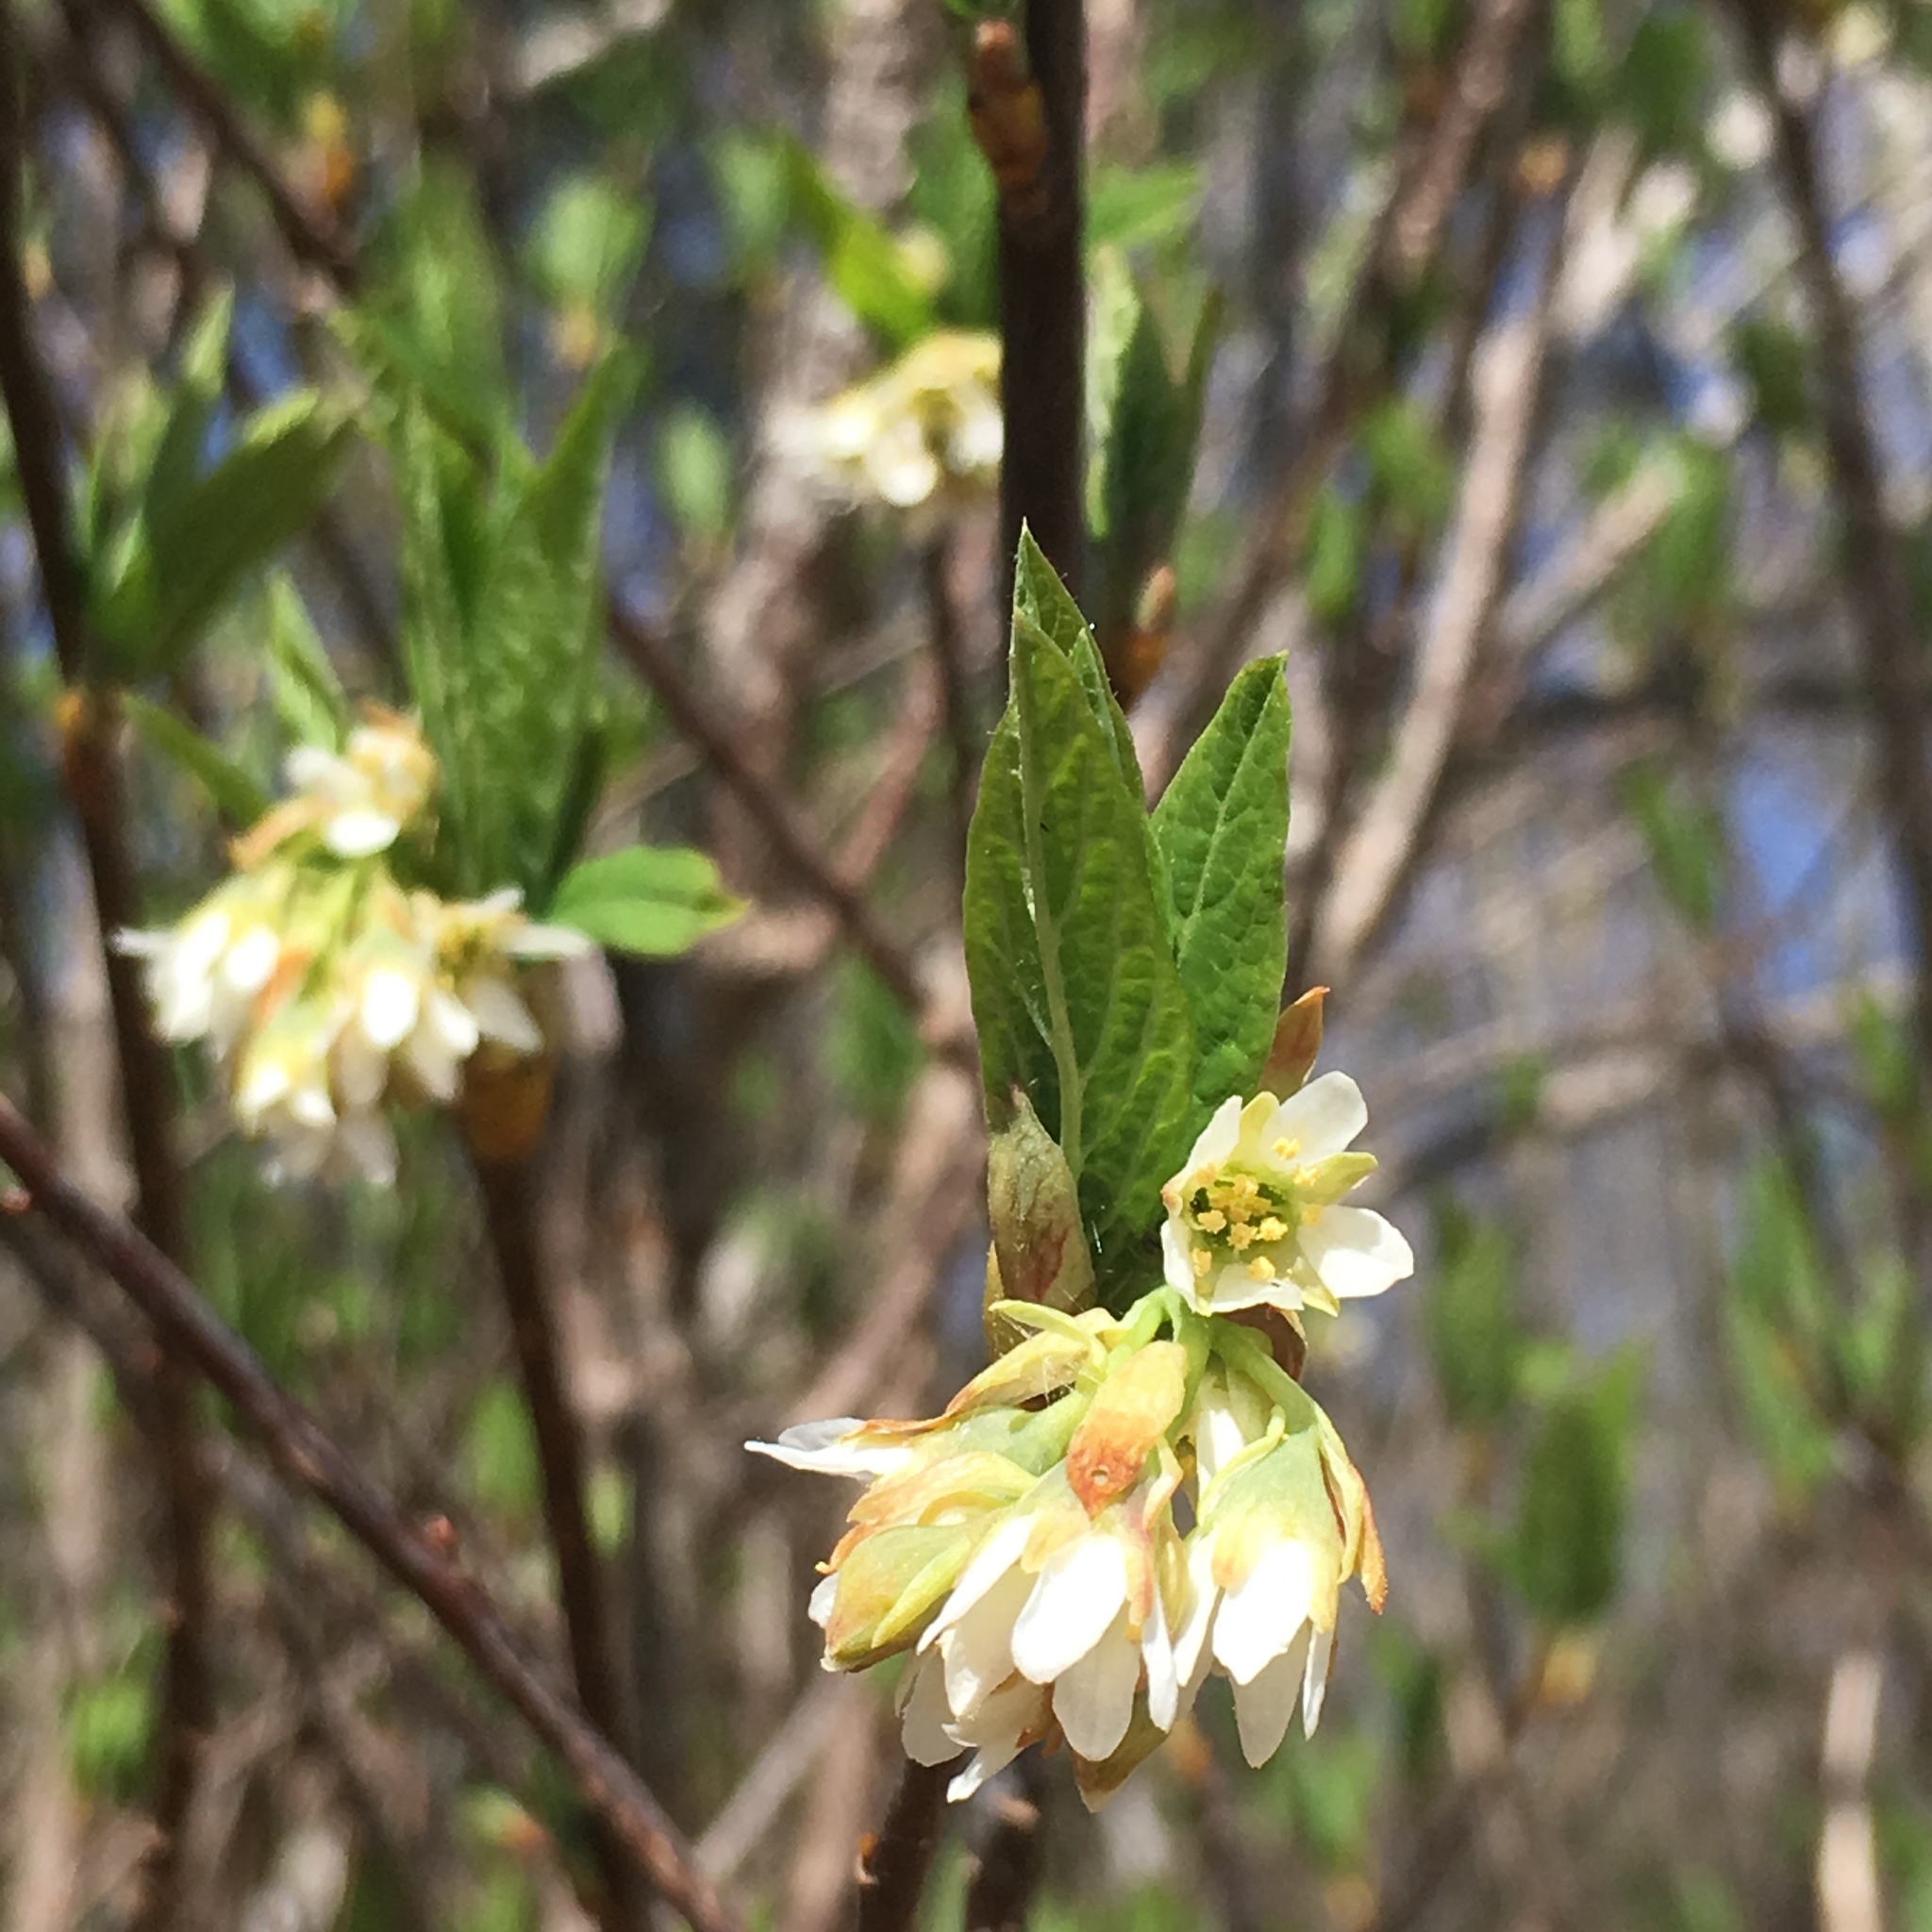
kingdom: Plantae
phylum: Tracheophyta
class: Magnoliopsida
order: Rosales
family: Rosaceae
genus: Oemleria
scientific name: Oemleria cerasiformis
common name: Osoberry
